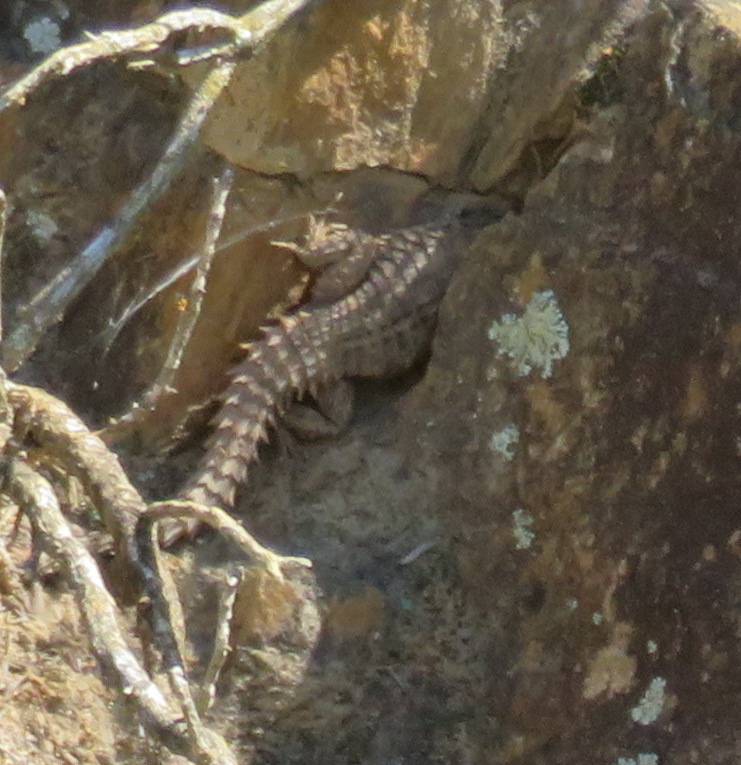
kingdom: Animalia
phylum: Chordata
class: Squamata
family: Cordylidae
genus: Cordylus
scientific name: Cordylus cordylus
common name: Cape girdled lizard
